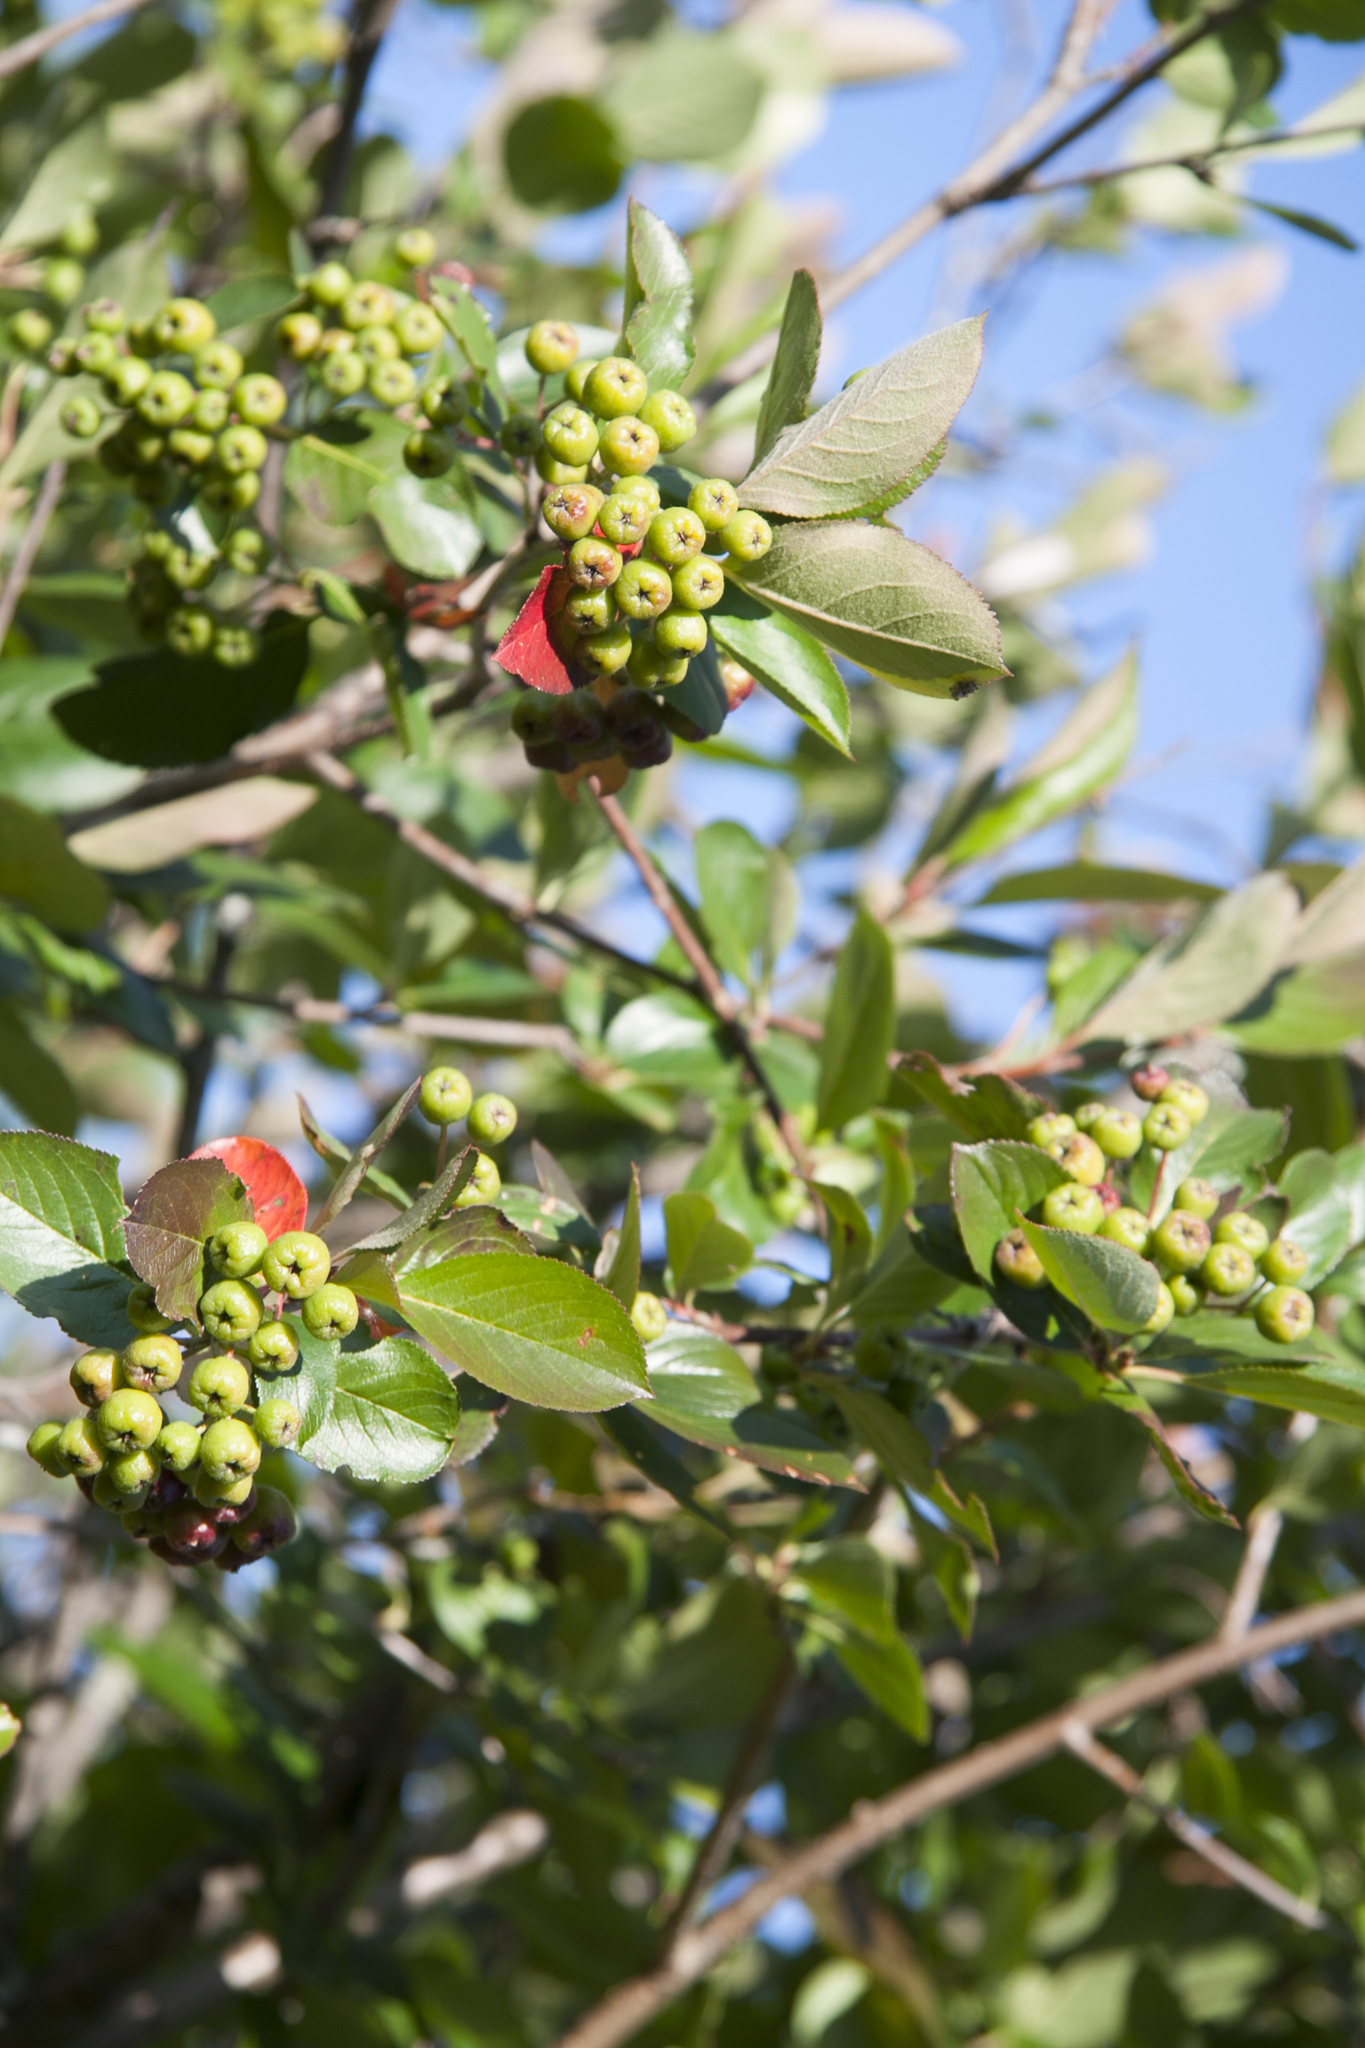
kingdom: Plantae
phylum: Tracheophyta
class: Magnoliopsida
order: Rosales
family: Rosaceae
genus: Sorbaronia
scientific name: Sorbaronia arsenii
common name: Arsène's mountain-ash
